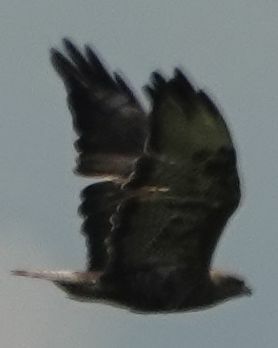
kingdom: Animalia
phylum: Chordata
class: Aves
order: Accipitriformes
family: Accipitridae
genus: Buteo
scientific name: Buteo buteo
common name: Common buzzard
